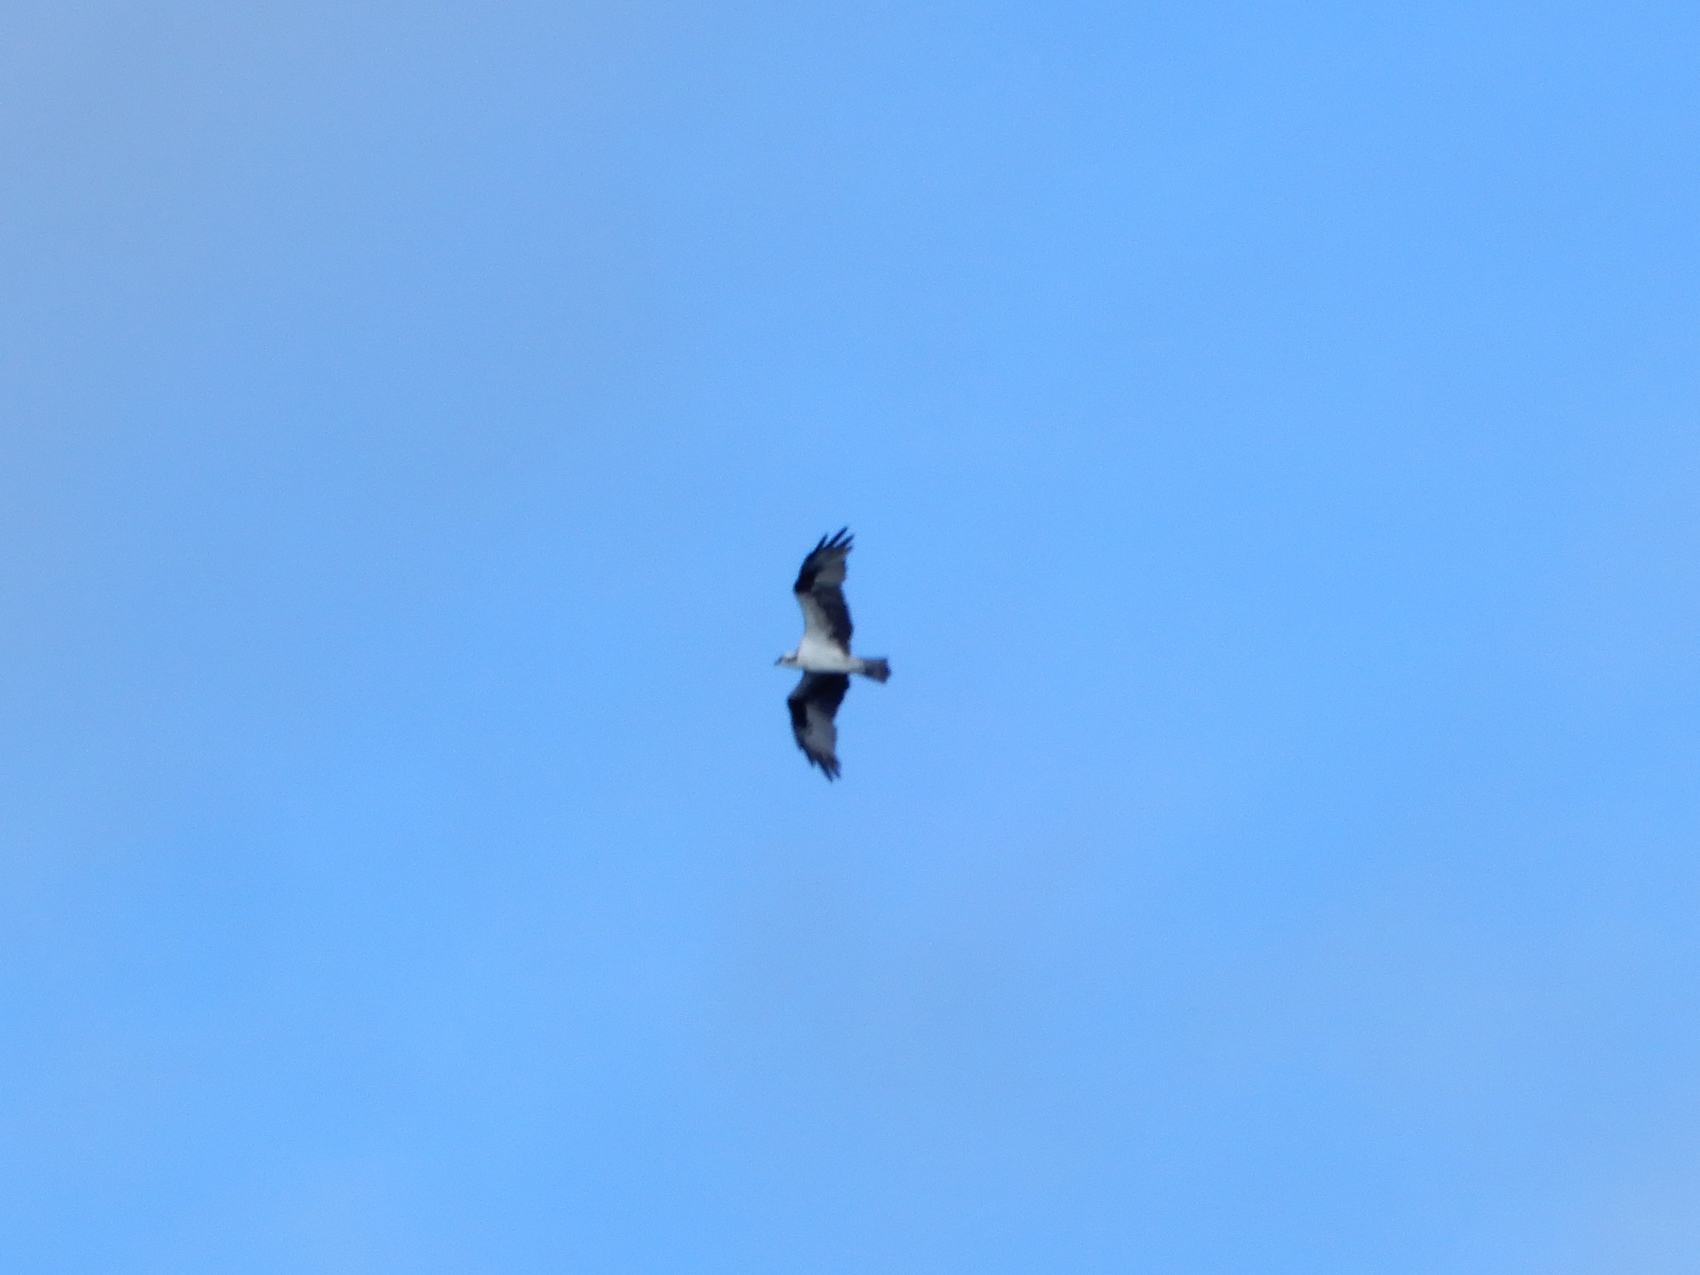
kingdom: Animalia
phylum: Chordata
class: Aves
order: Accipitriformes
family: Pandionidae
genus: Pandion
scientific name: Pandion haliaetus
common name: Osprey
